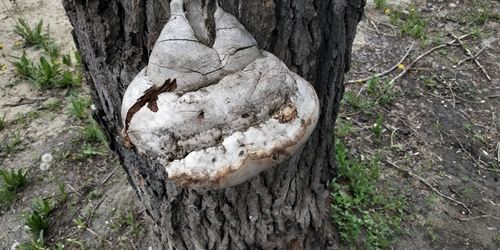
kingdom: Fungi
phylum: Basidiomycota
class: Agaricomycetes
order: Polyporales
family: Polyporaceae
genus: Fomes
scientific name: Fomes fomentarius
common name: Hoof fungus
